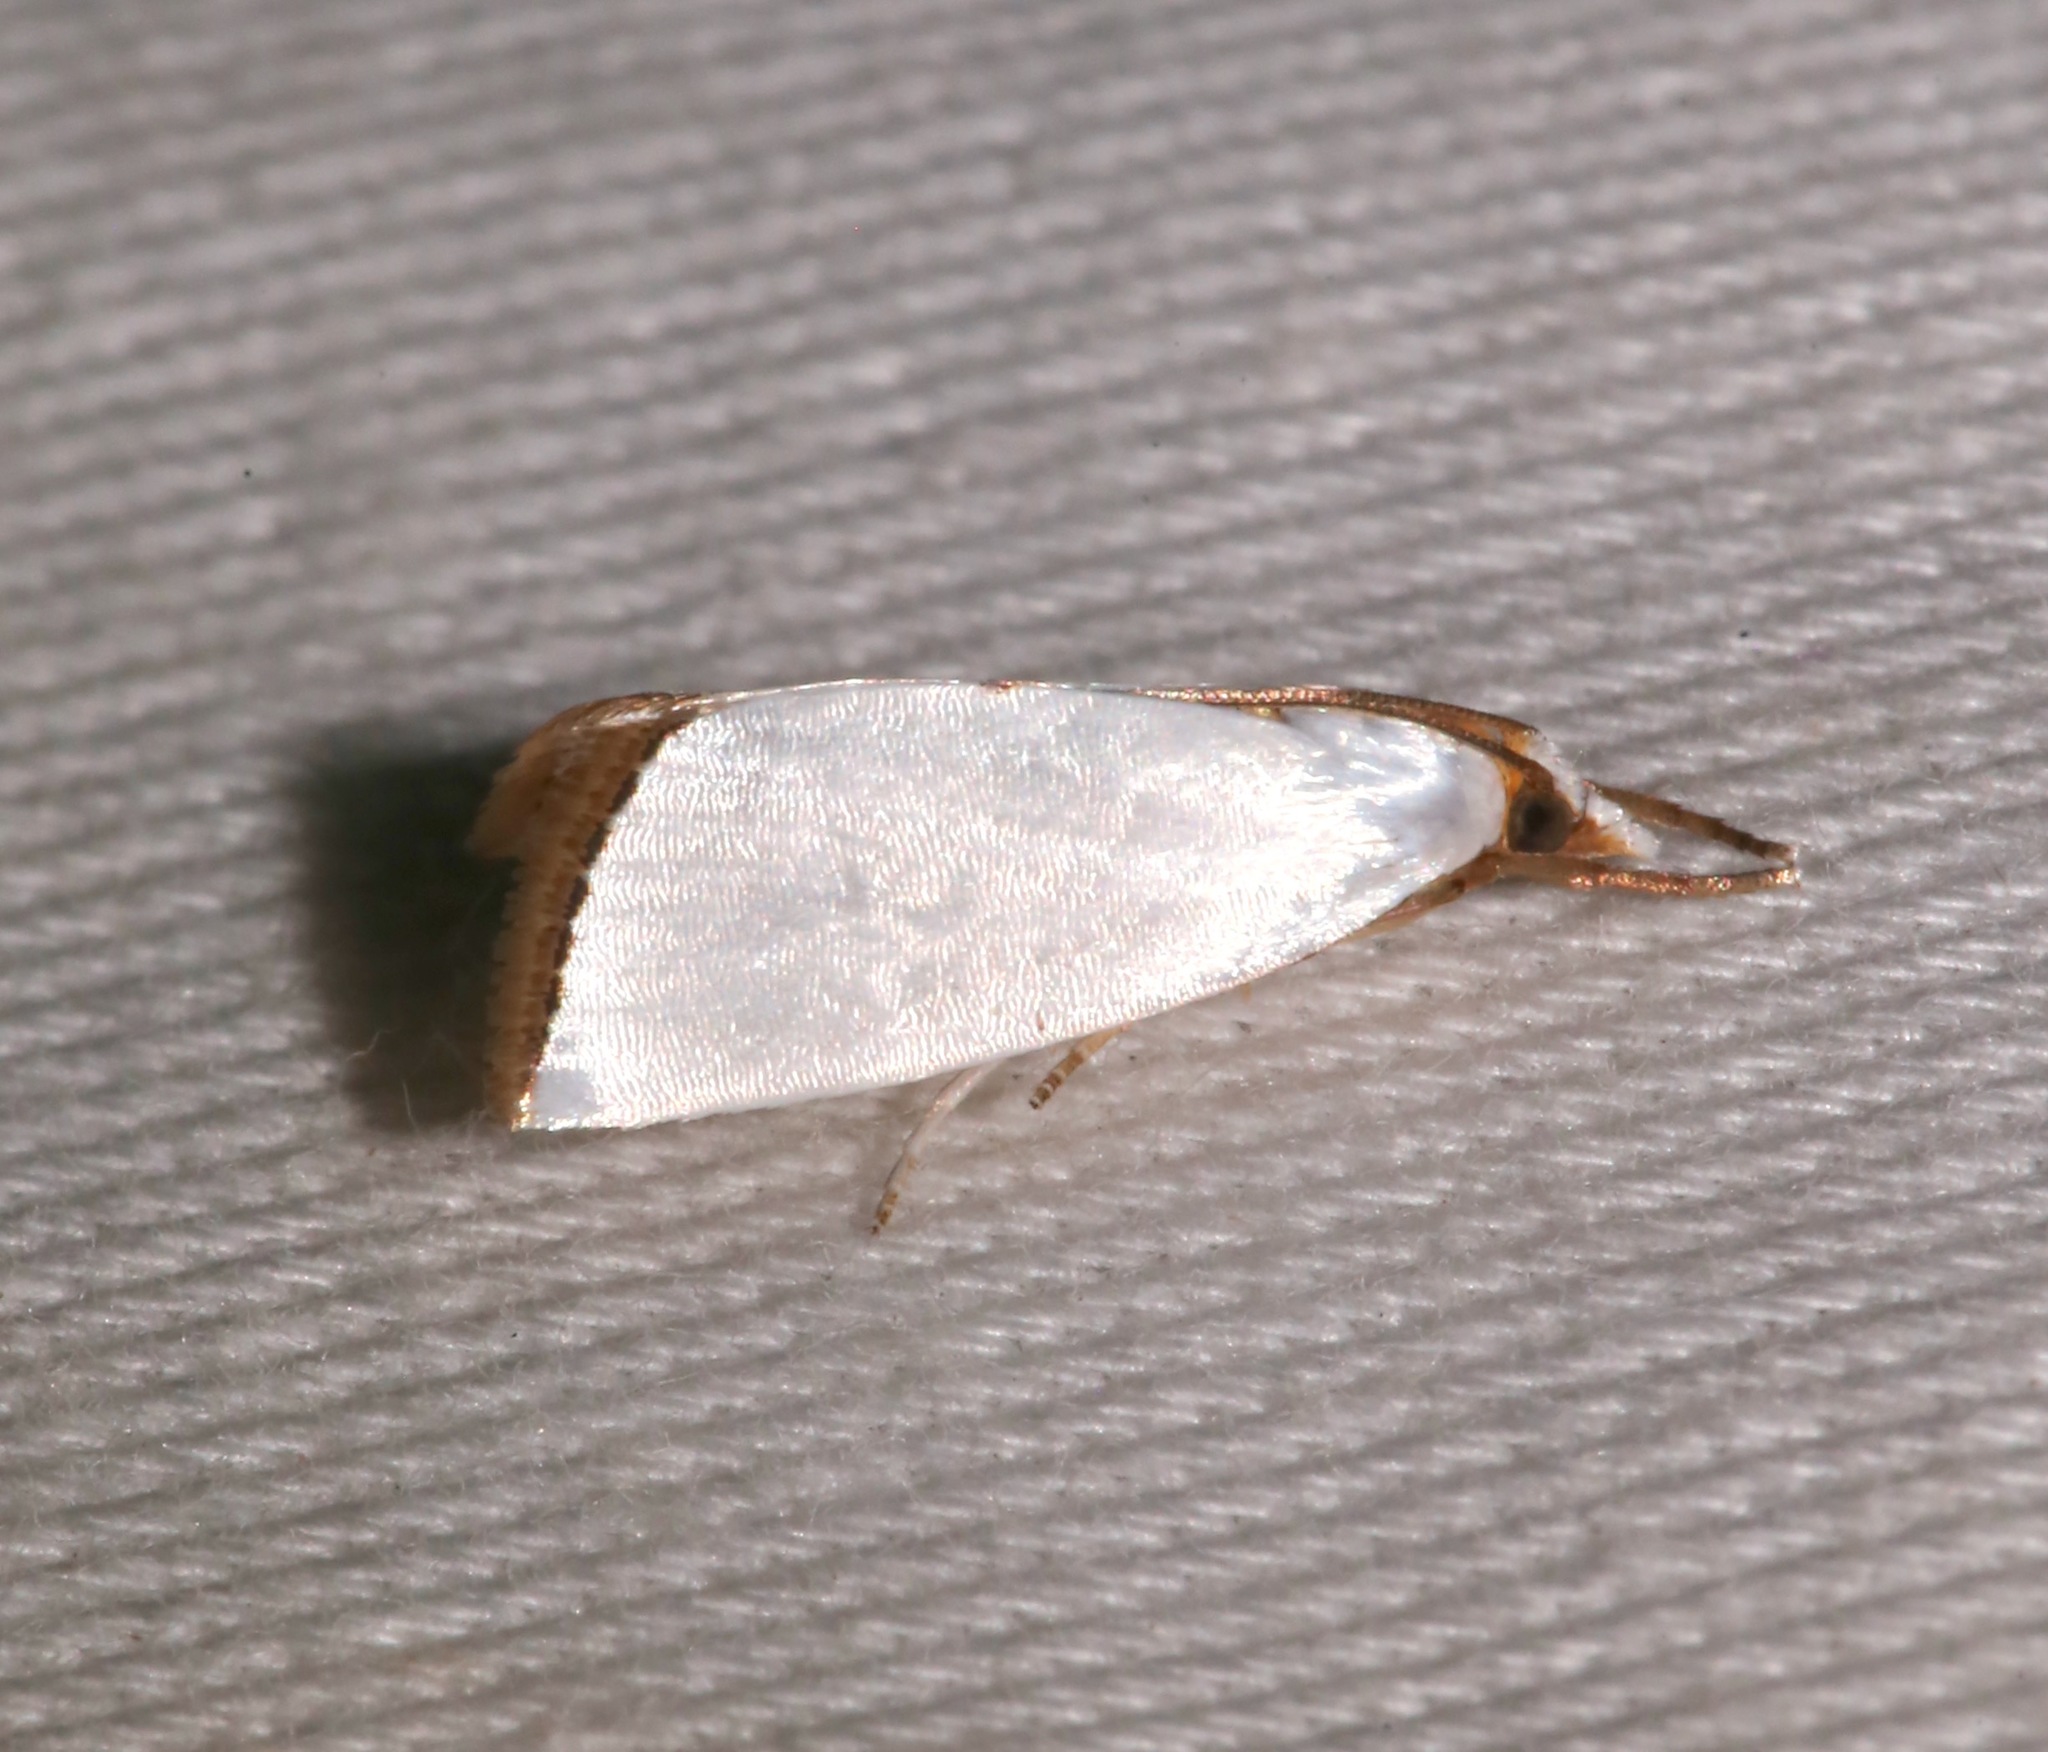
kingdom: Animalia
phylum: Arthropoda
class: Insecta
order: Lepidoptera
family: Crambidae
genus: Argyria
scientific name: Argyria nivalis
